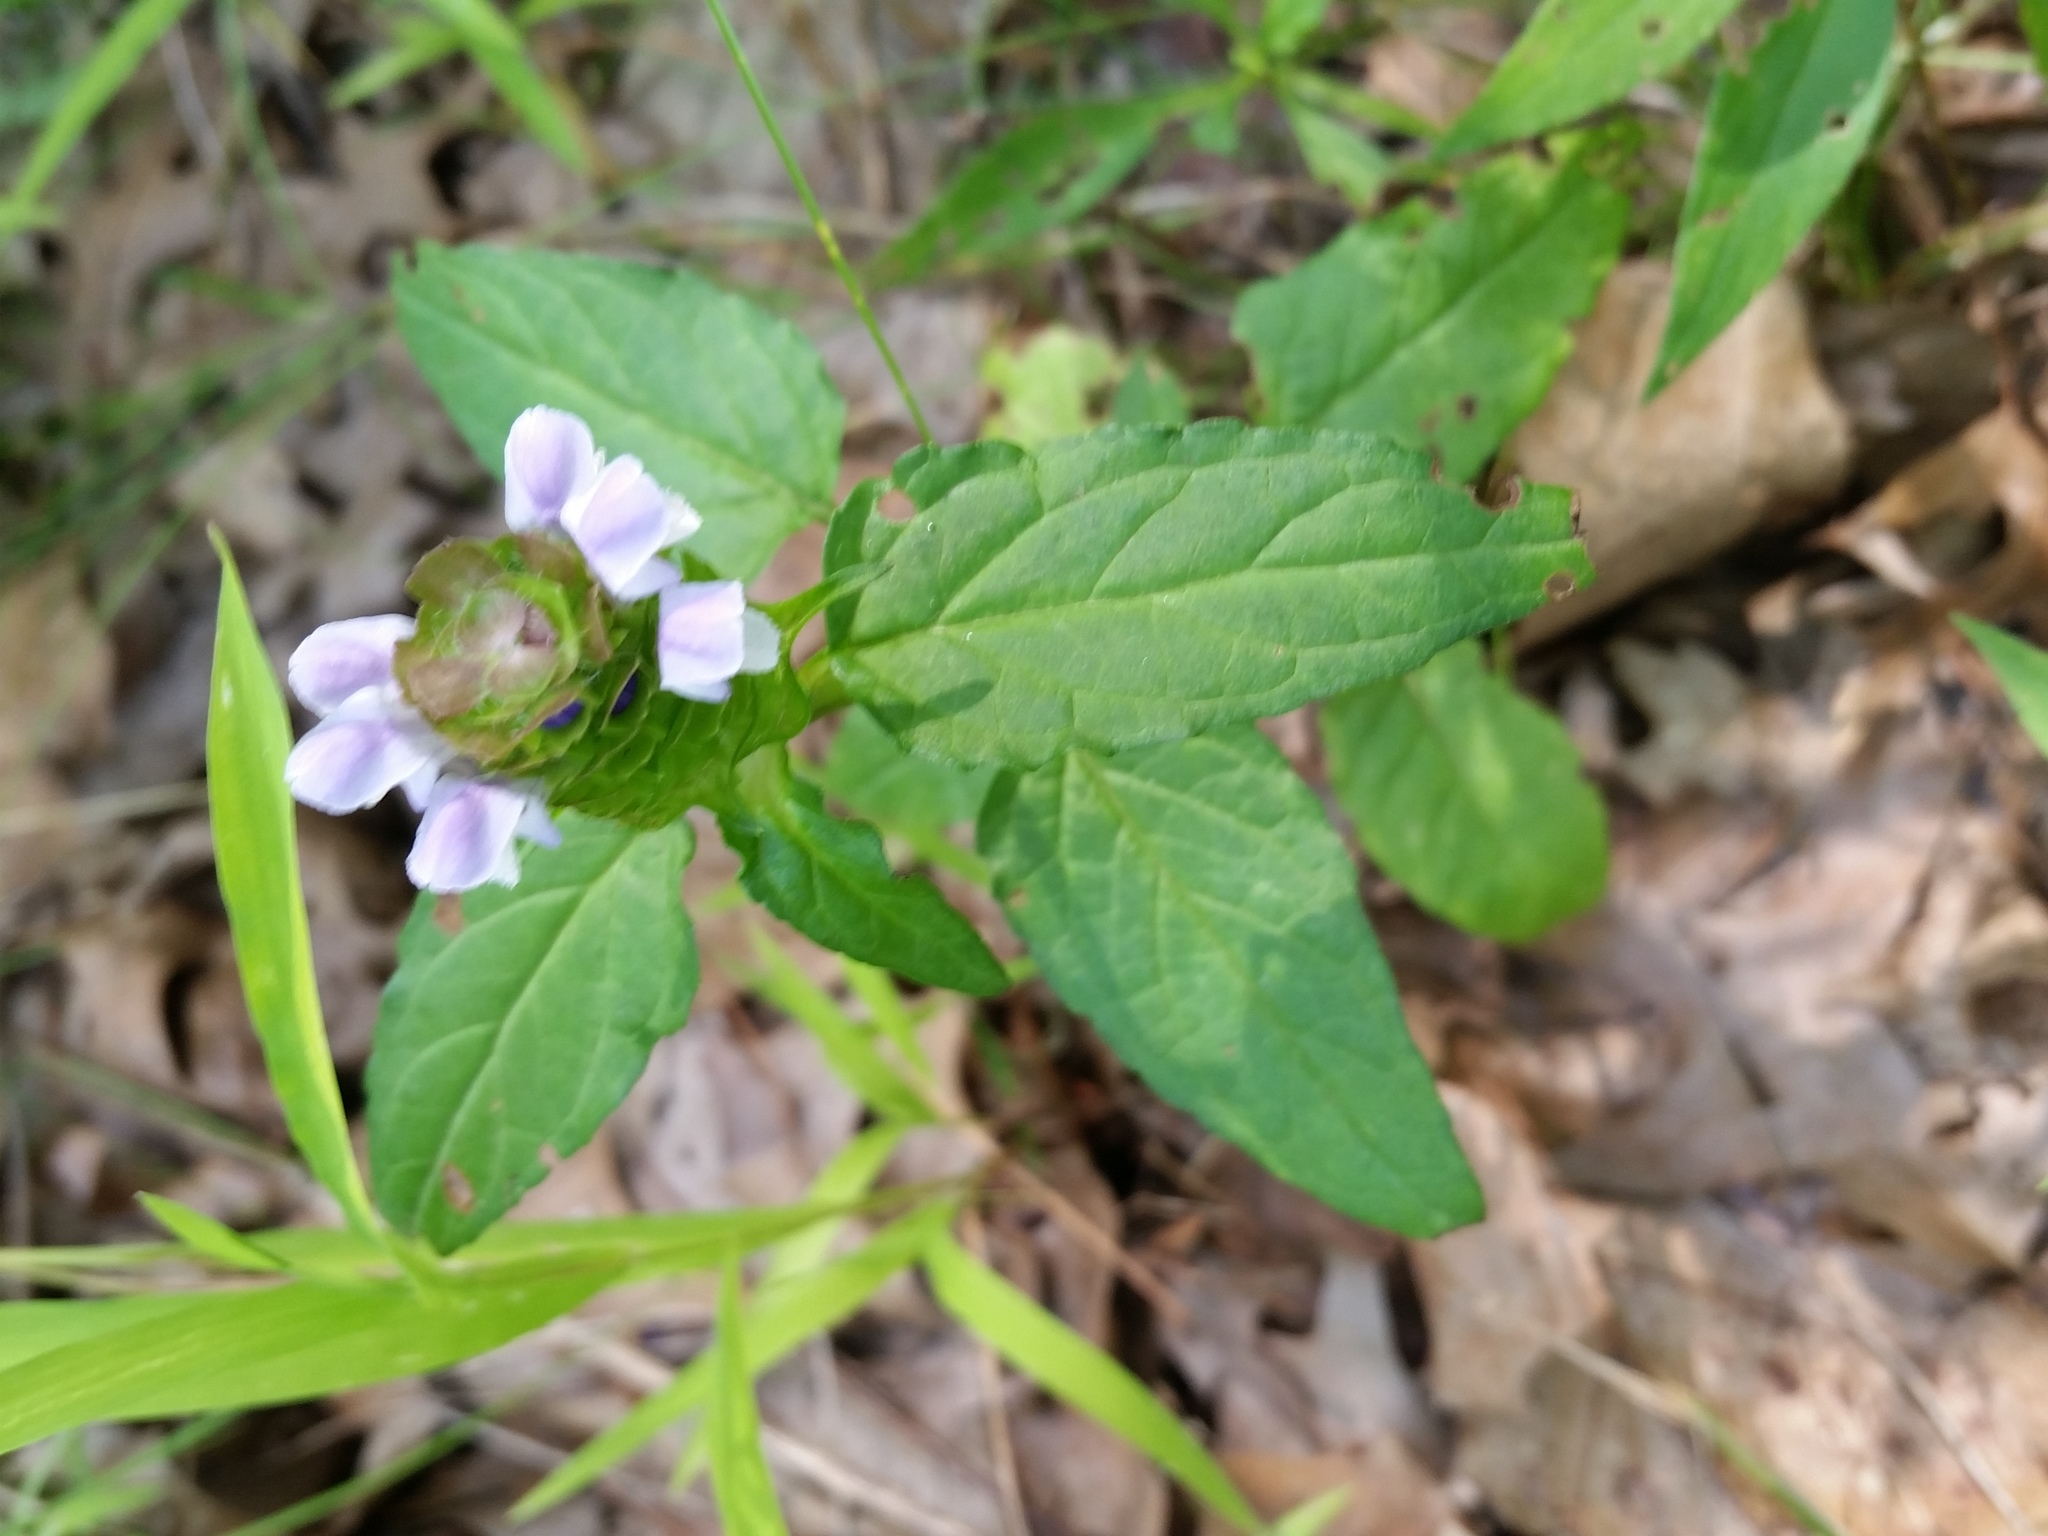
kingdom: Plantae
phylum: Tracheophyta
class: Magnoliopsida
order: Lamiales
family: Lamiaceae
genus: Prunella
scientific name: Prunella vulgaris
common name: Heal-all
